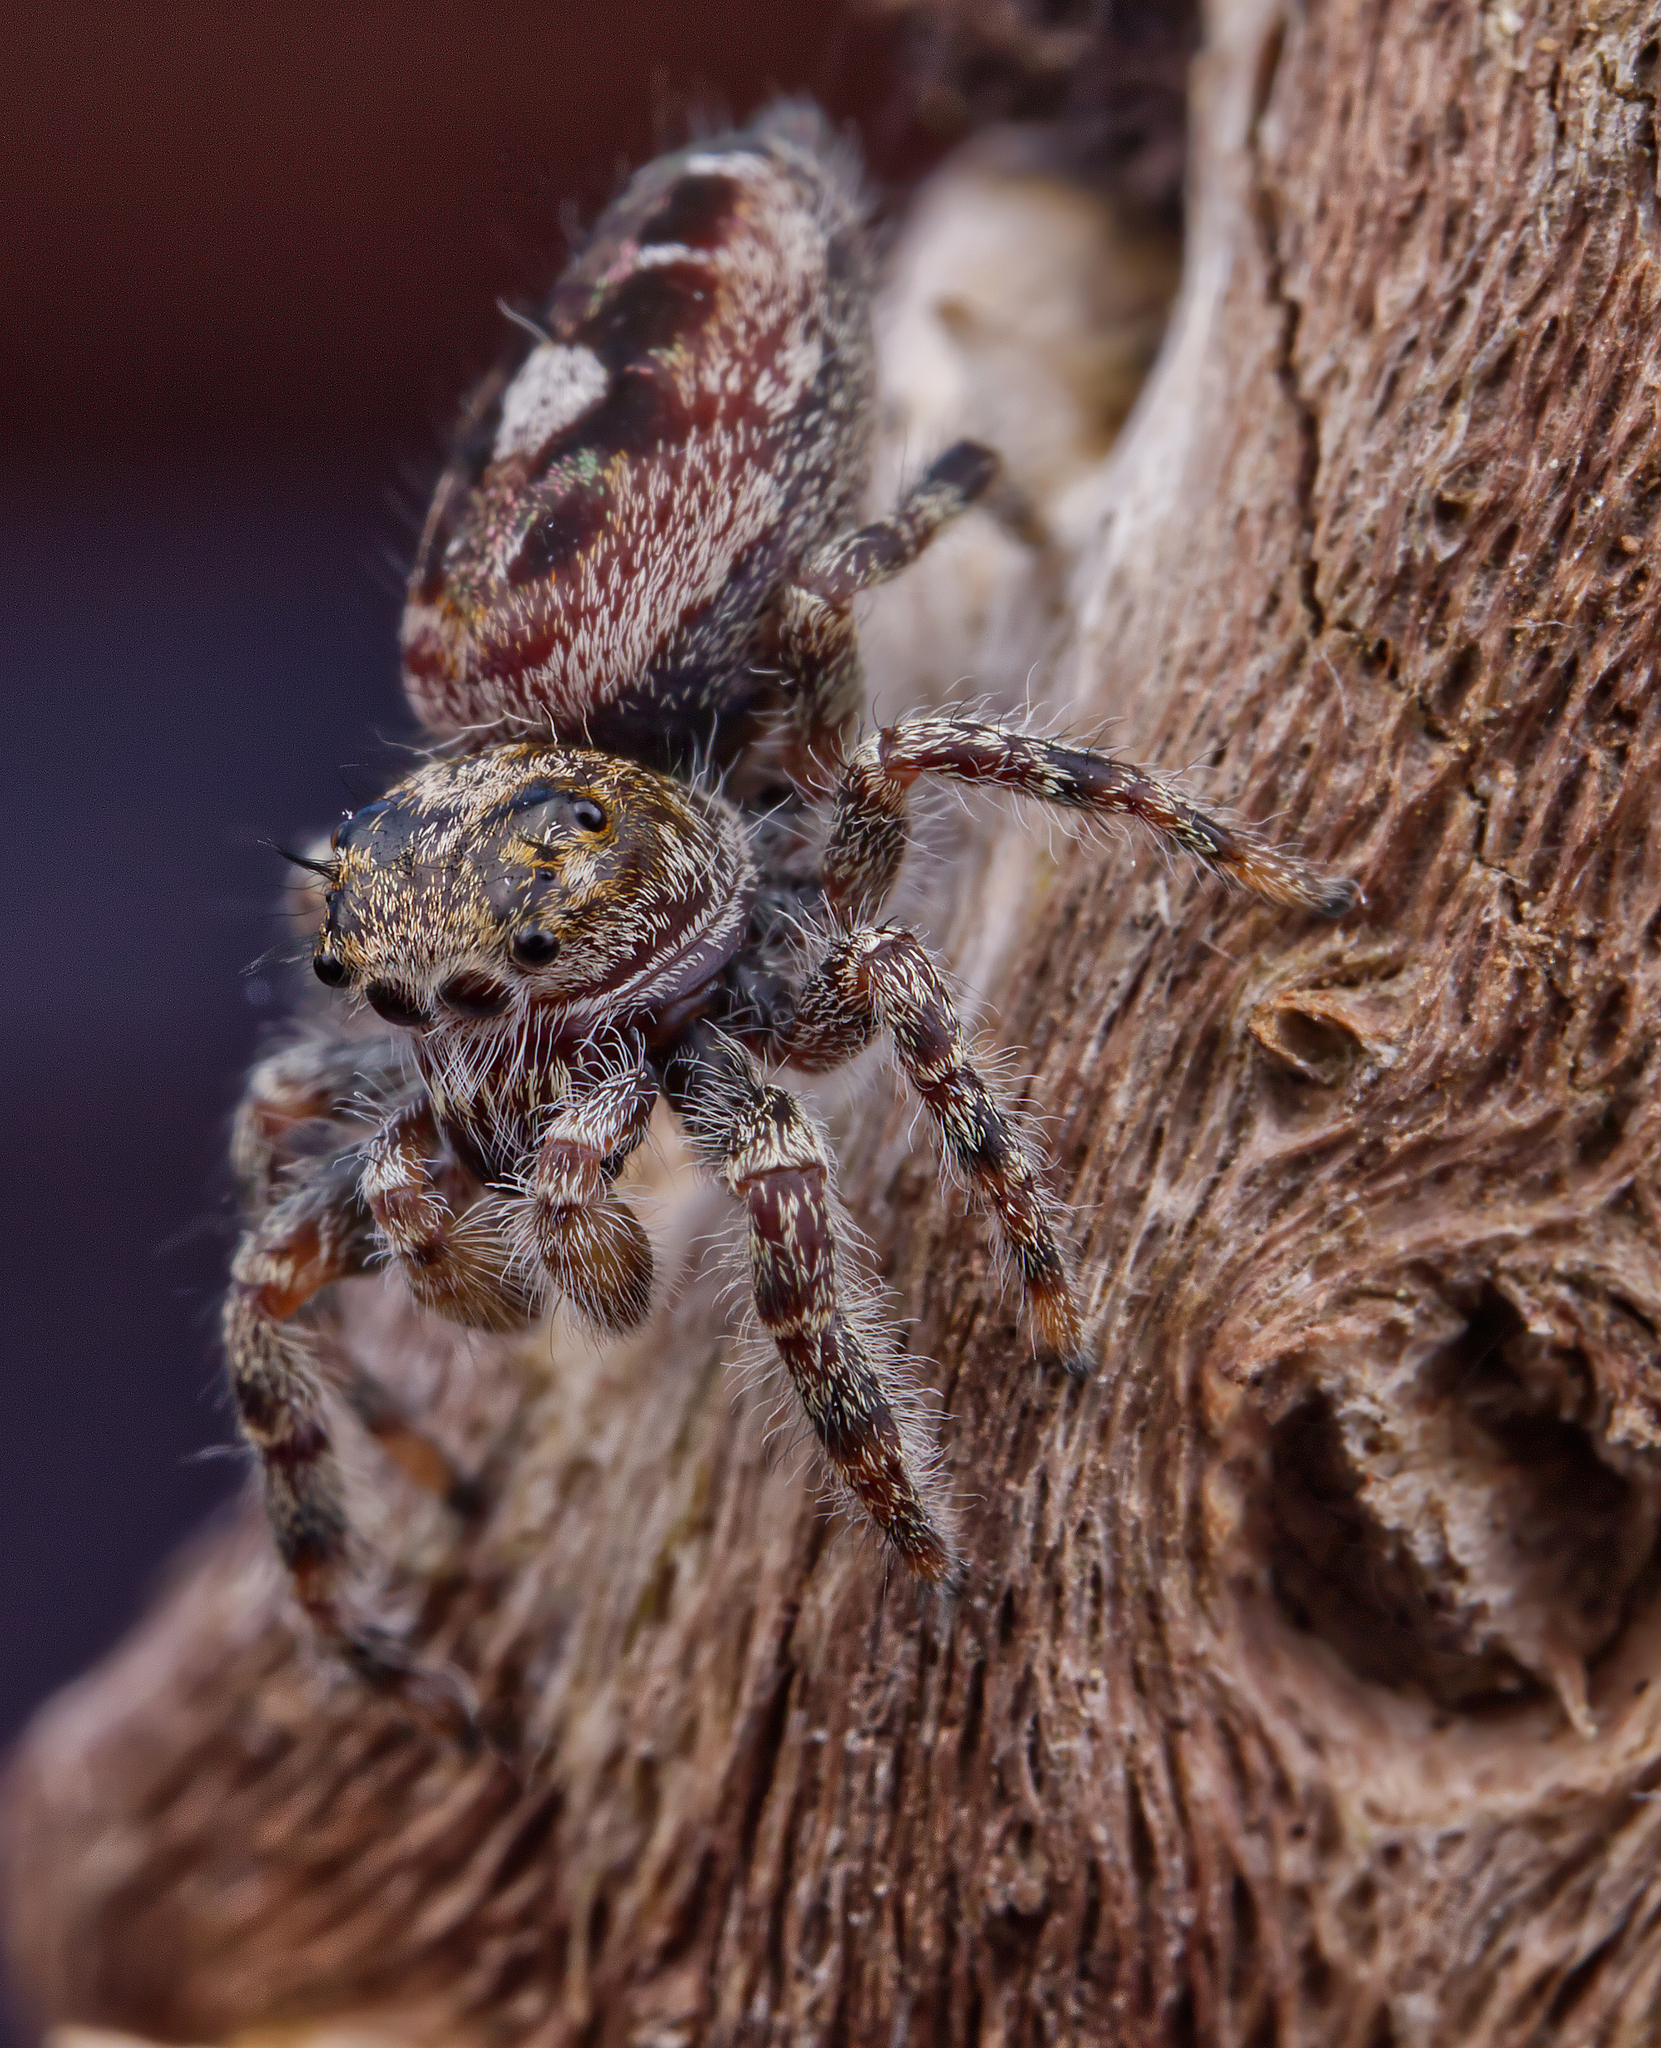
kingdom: Animalia
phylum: Arthropoda
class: Arachnida
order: Araneae
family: Salticidae
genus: Phidippus
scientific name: Phidippus putnami
